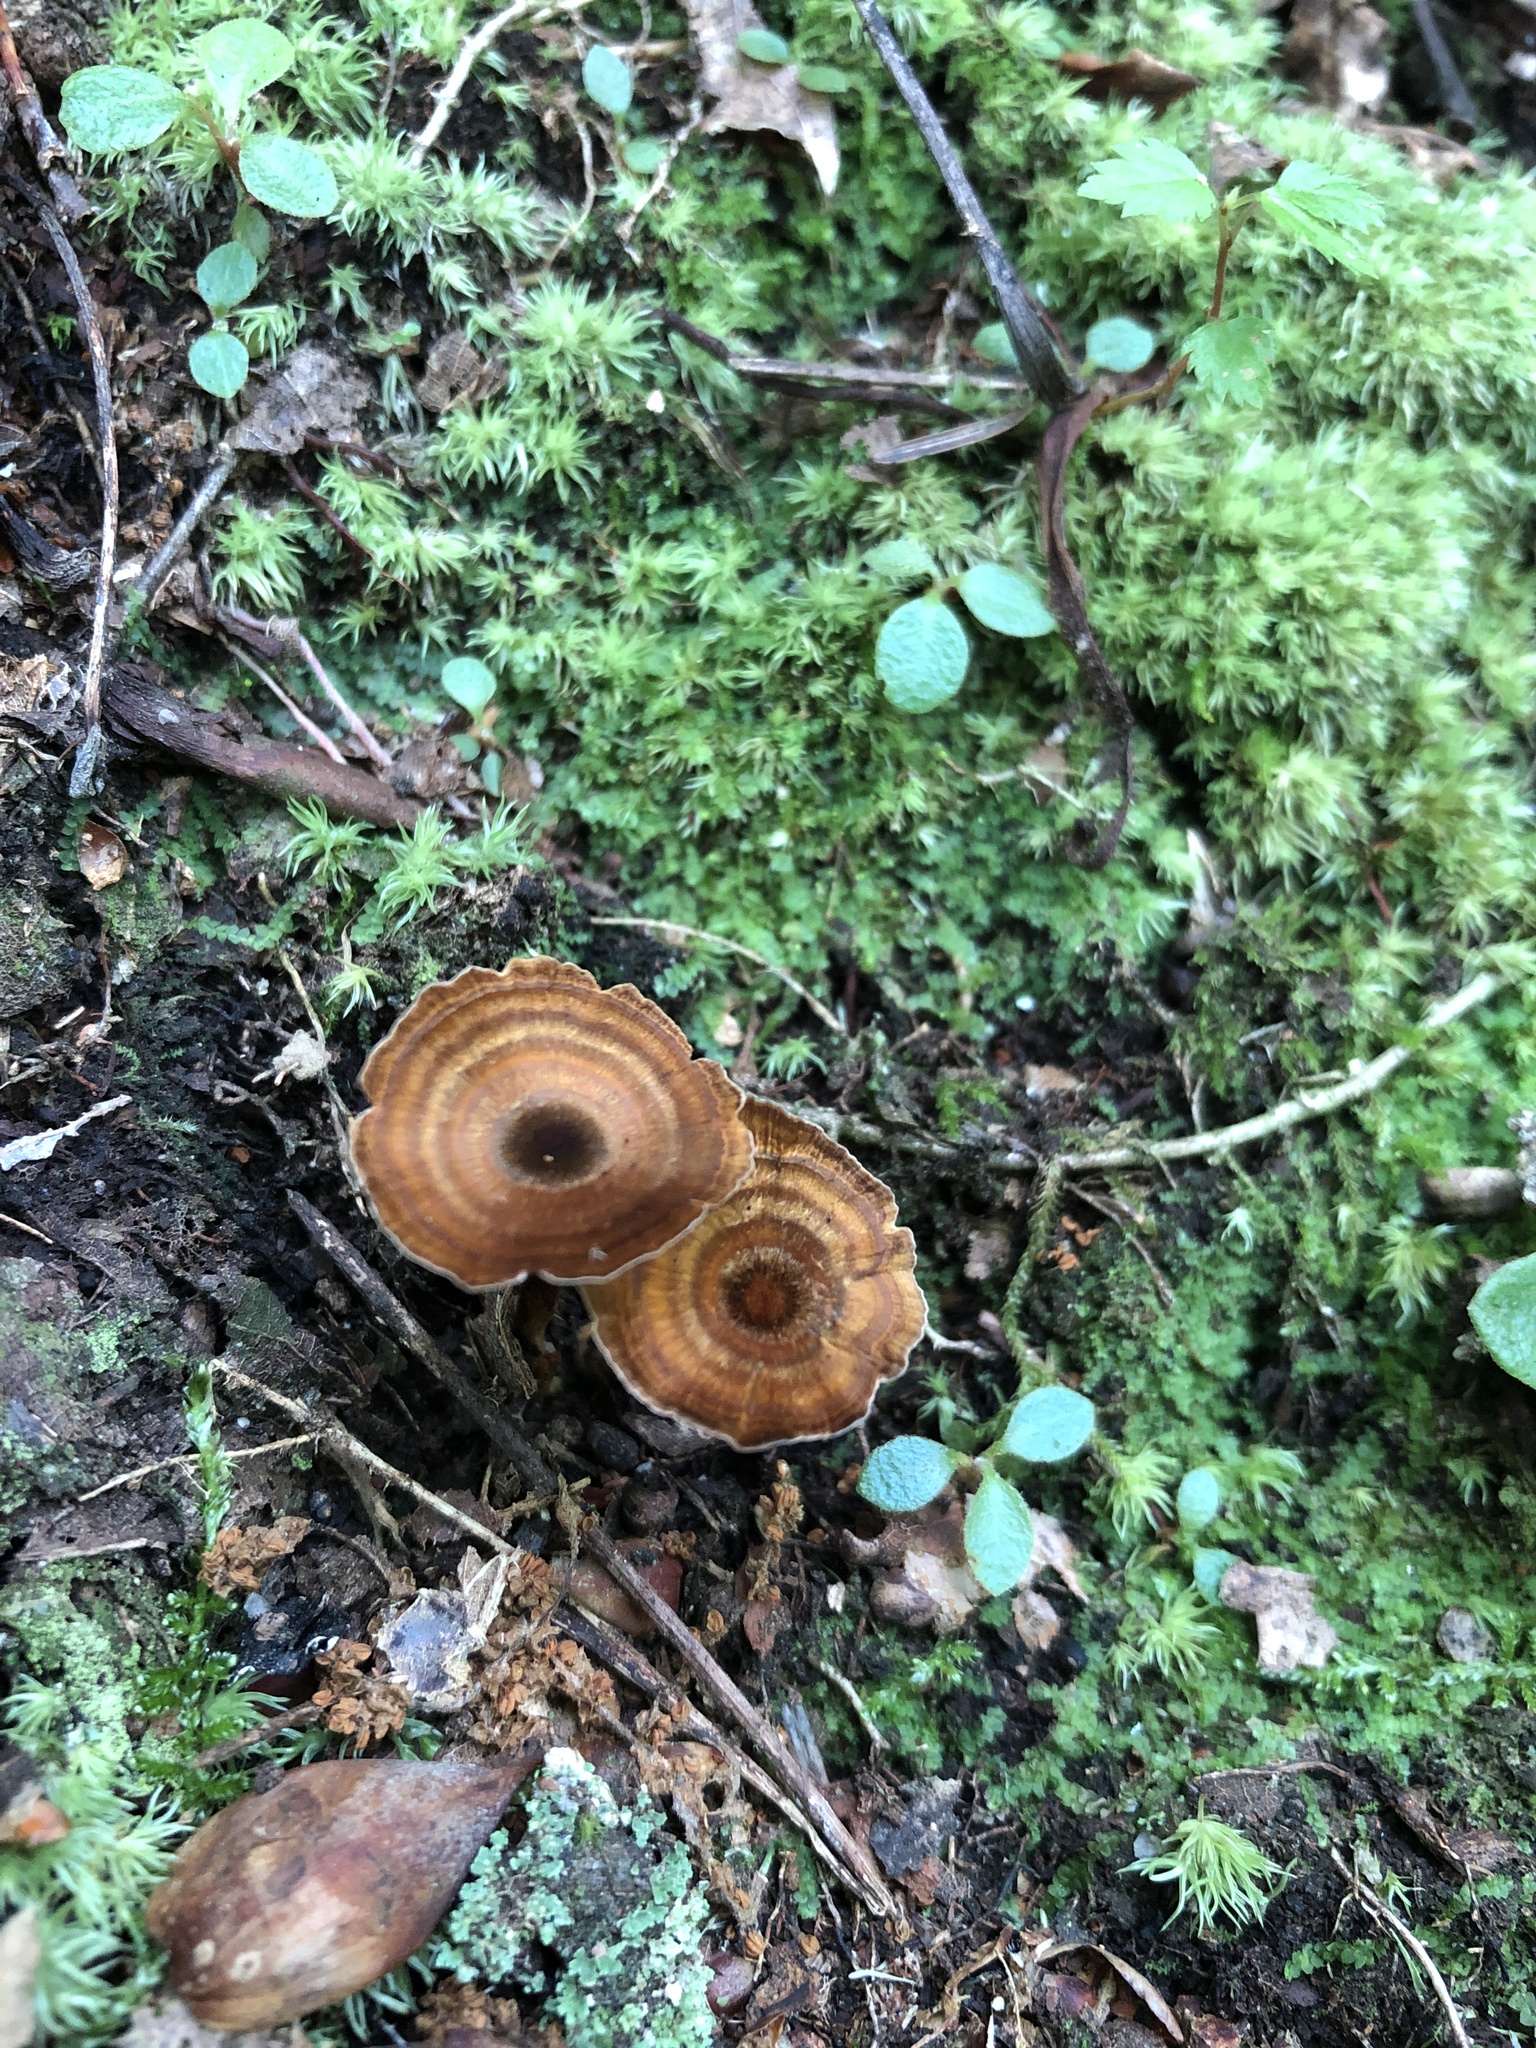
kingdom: Fungi
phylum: Basidiomycota
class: Agaricomycetes
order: Hymenochaetales
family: Hymenochaetaceae
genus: Coltricia
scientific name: Coltricia cinnamomea
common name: Shiny cinnamon polypore
